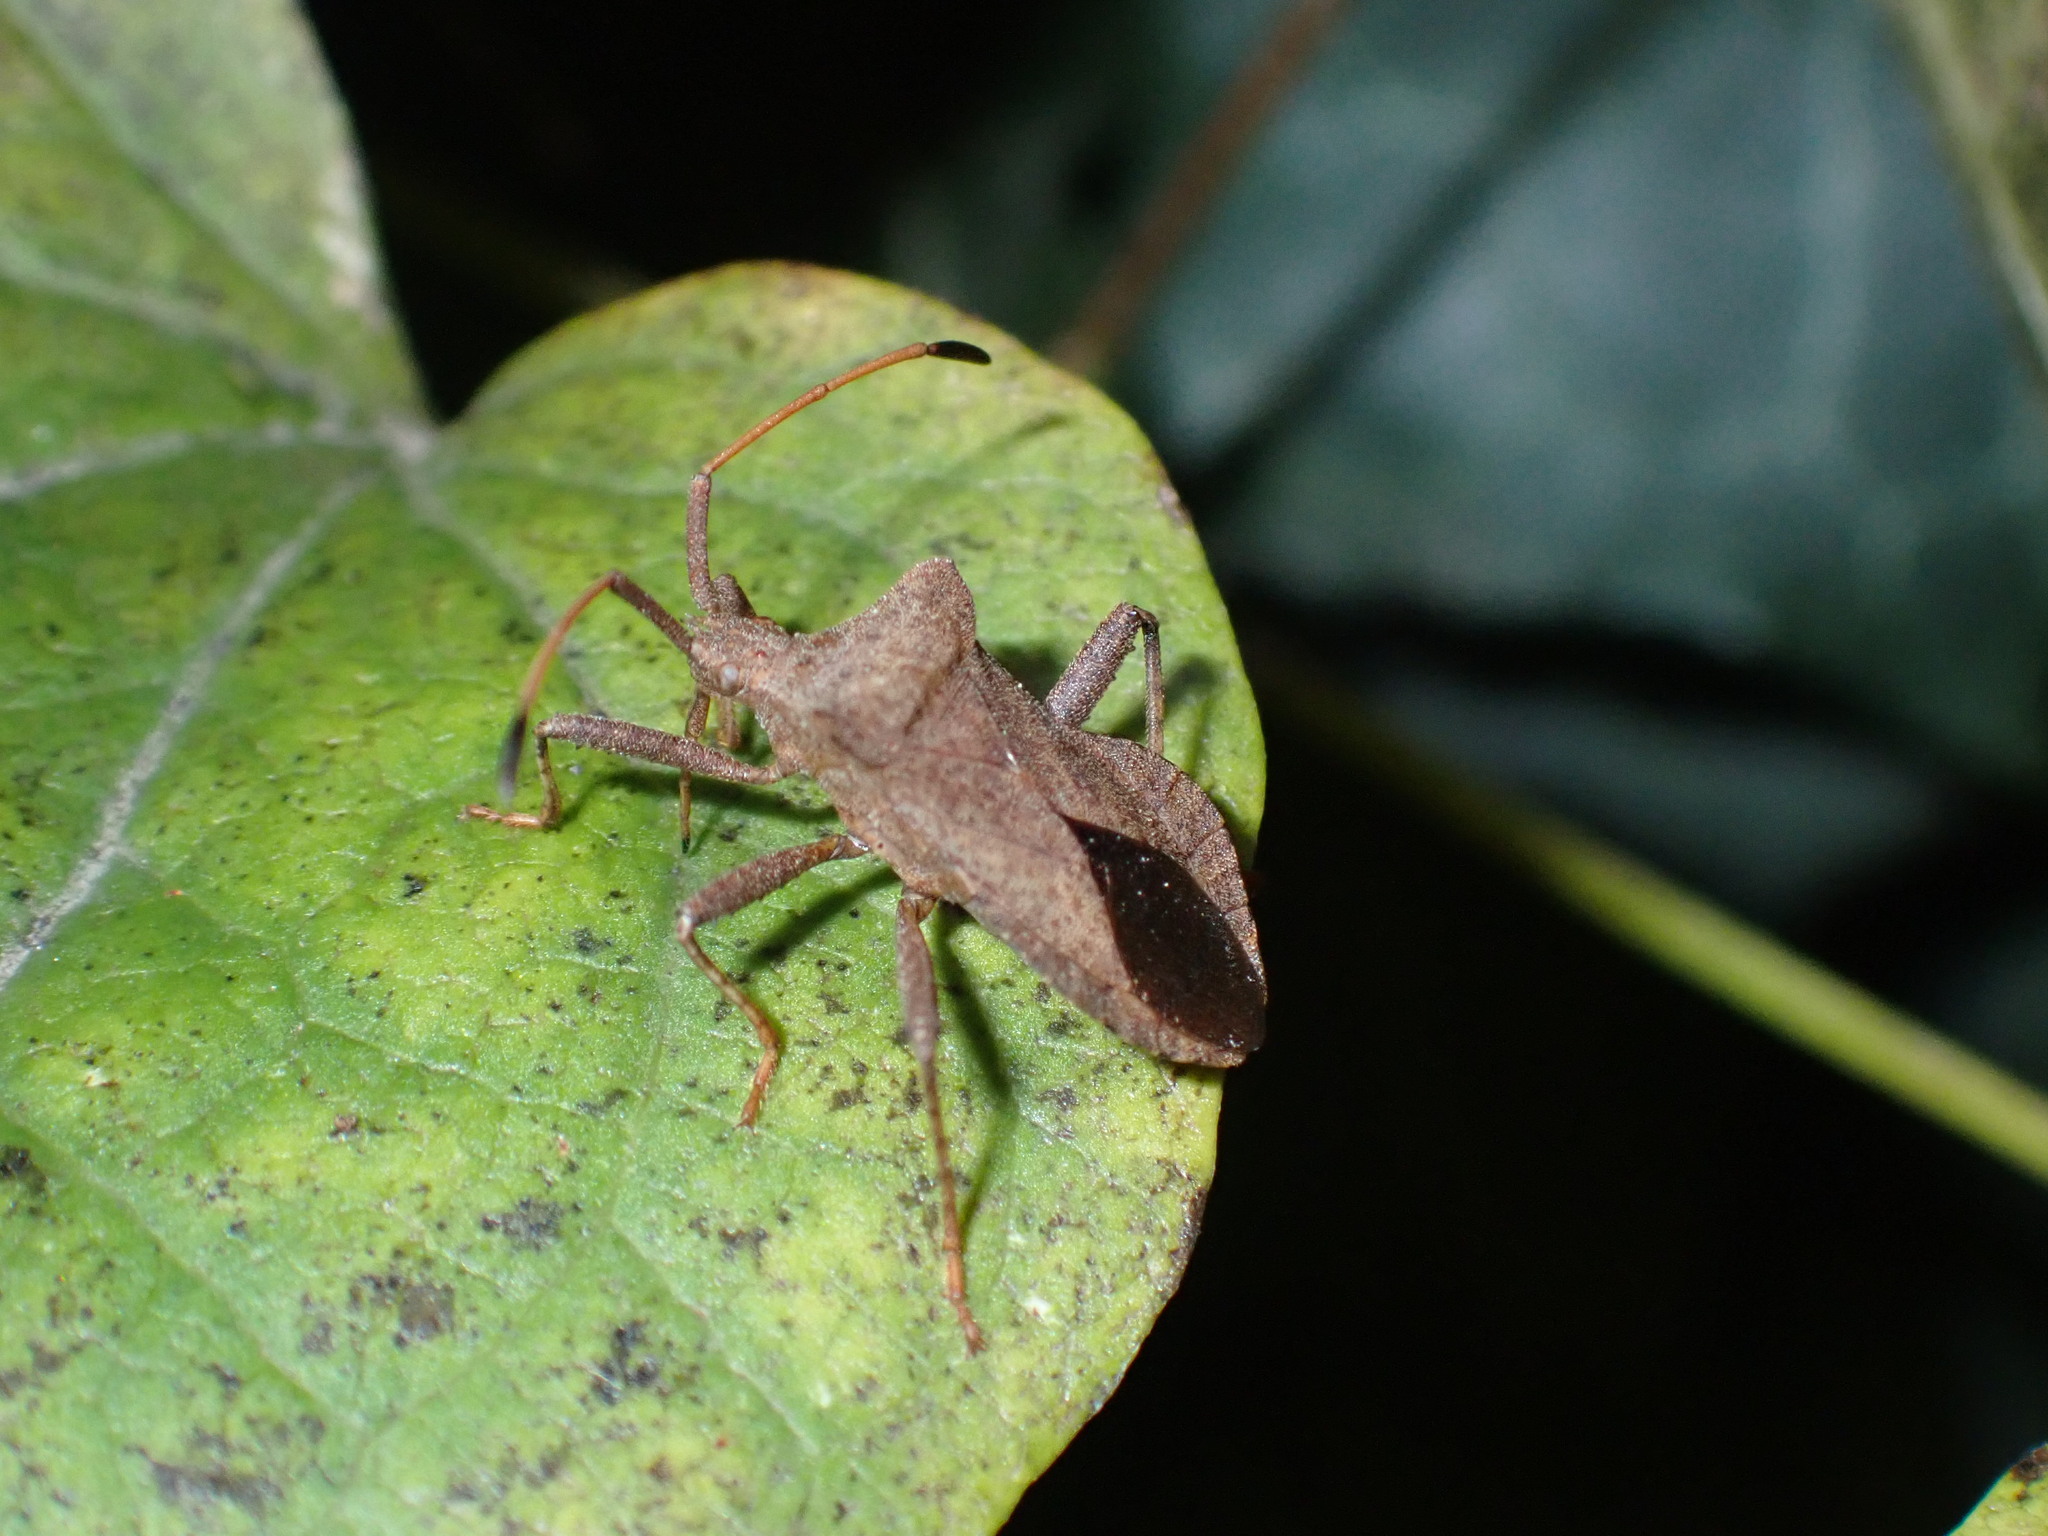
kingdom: Animalia
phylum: Arthropoda
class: Insecta
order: Hemiptera
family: Coreidae
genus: Coreus
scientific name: Coreus marginatus
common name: Dock bug
